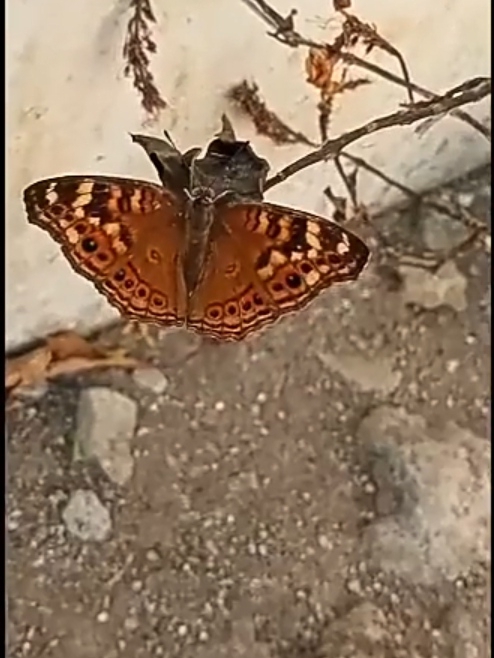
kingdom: Animalia
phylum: Arthropoda
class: Insecta
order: Lepidoptera
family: Nymphalidae
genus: Junonia
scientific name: Junonia erigone
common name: Northern argus
